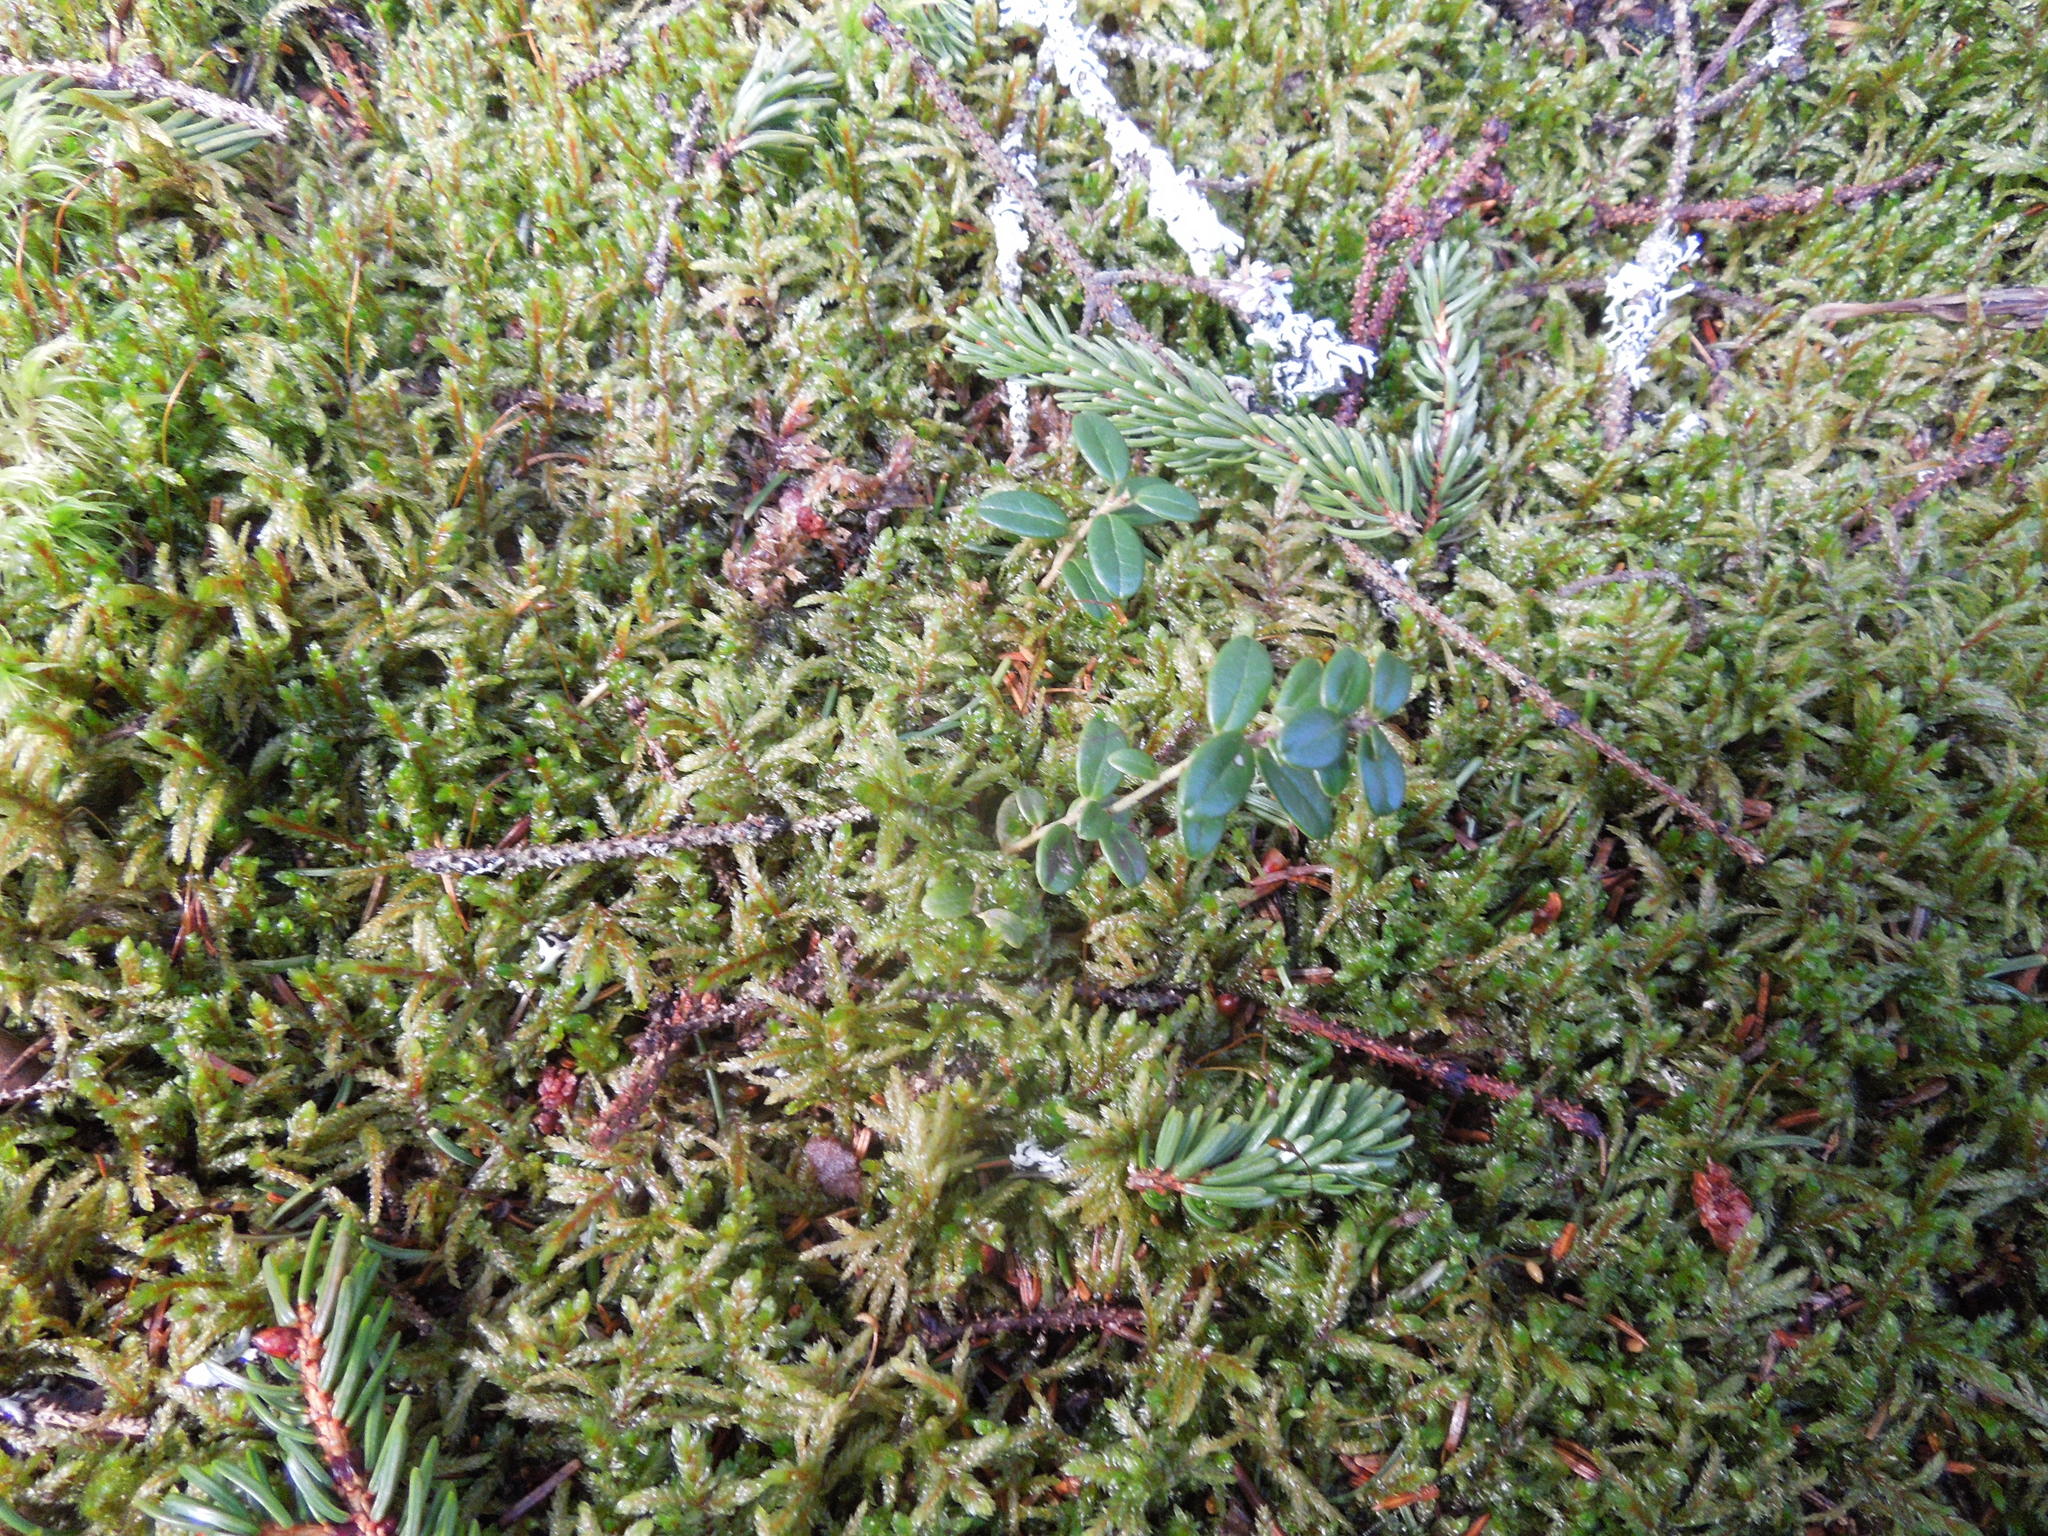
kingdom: Plantae
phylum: Tracheophyta
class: Magnoliopsida
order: Ericales
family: Ericaceae
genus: Vaccinium
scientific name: Vaccinium vitis-idaea
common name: Cowberry
